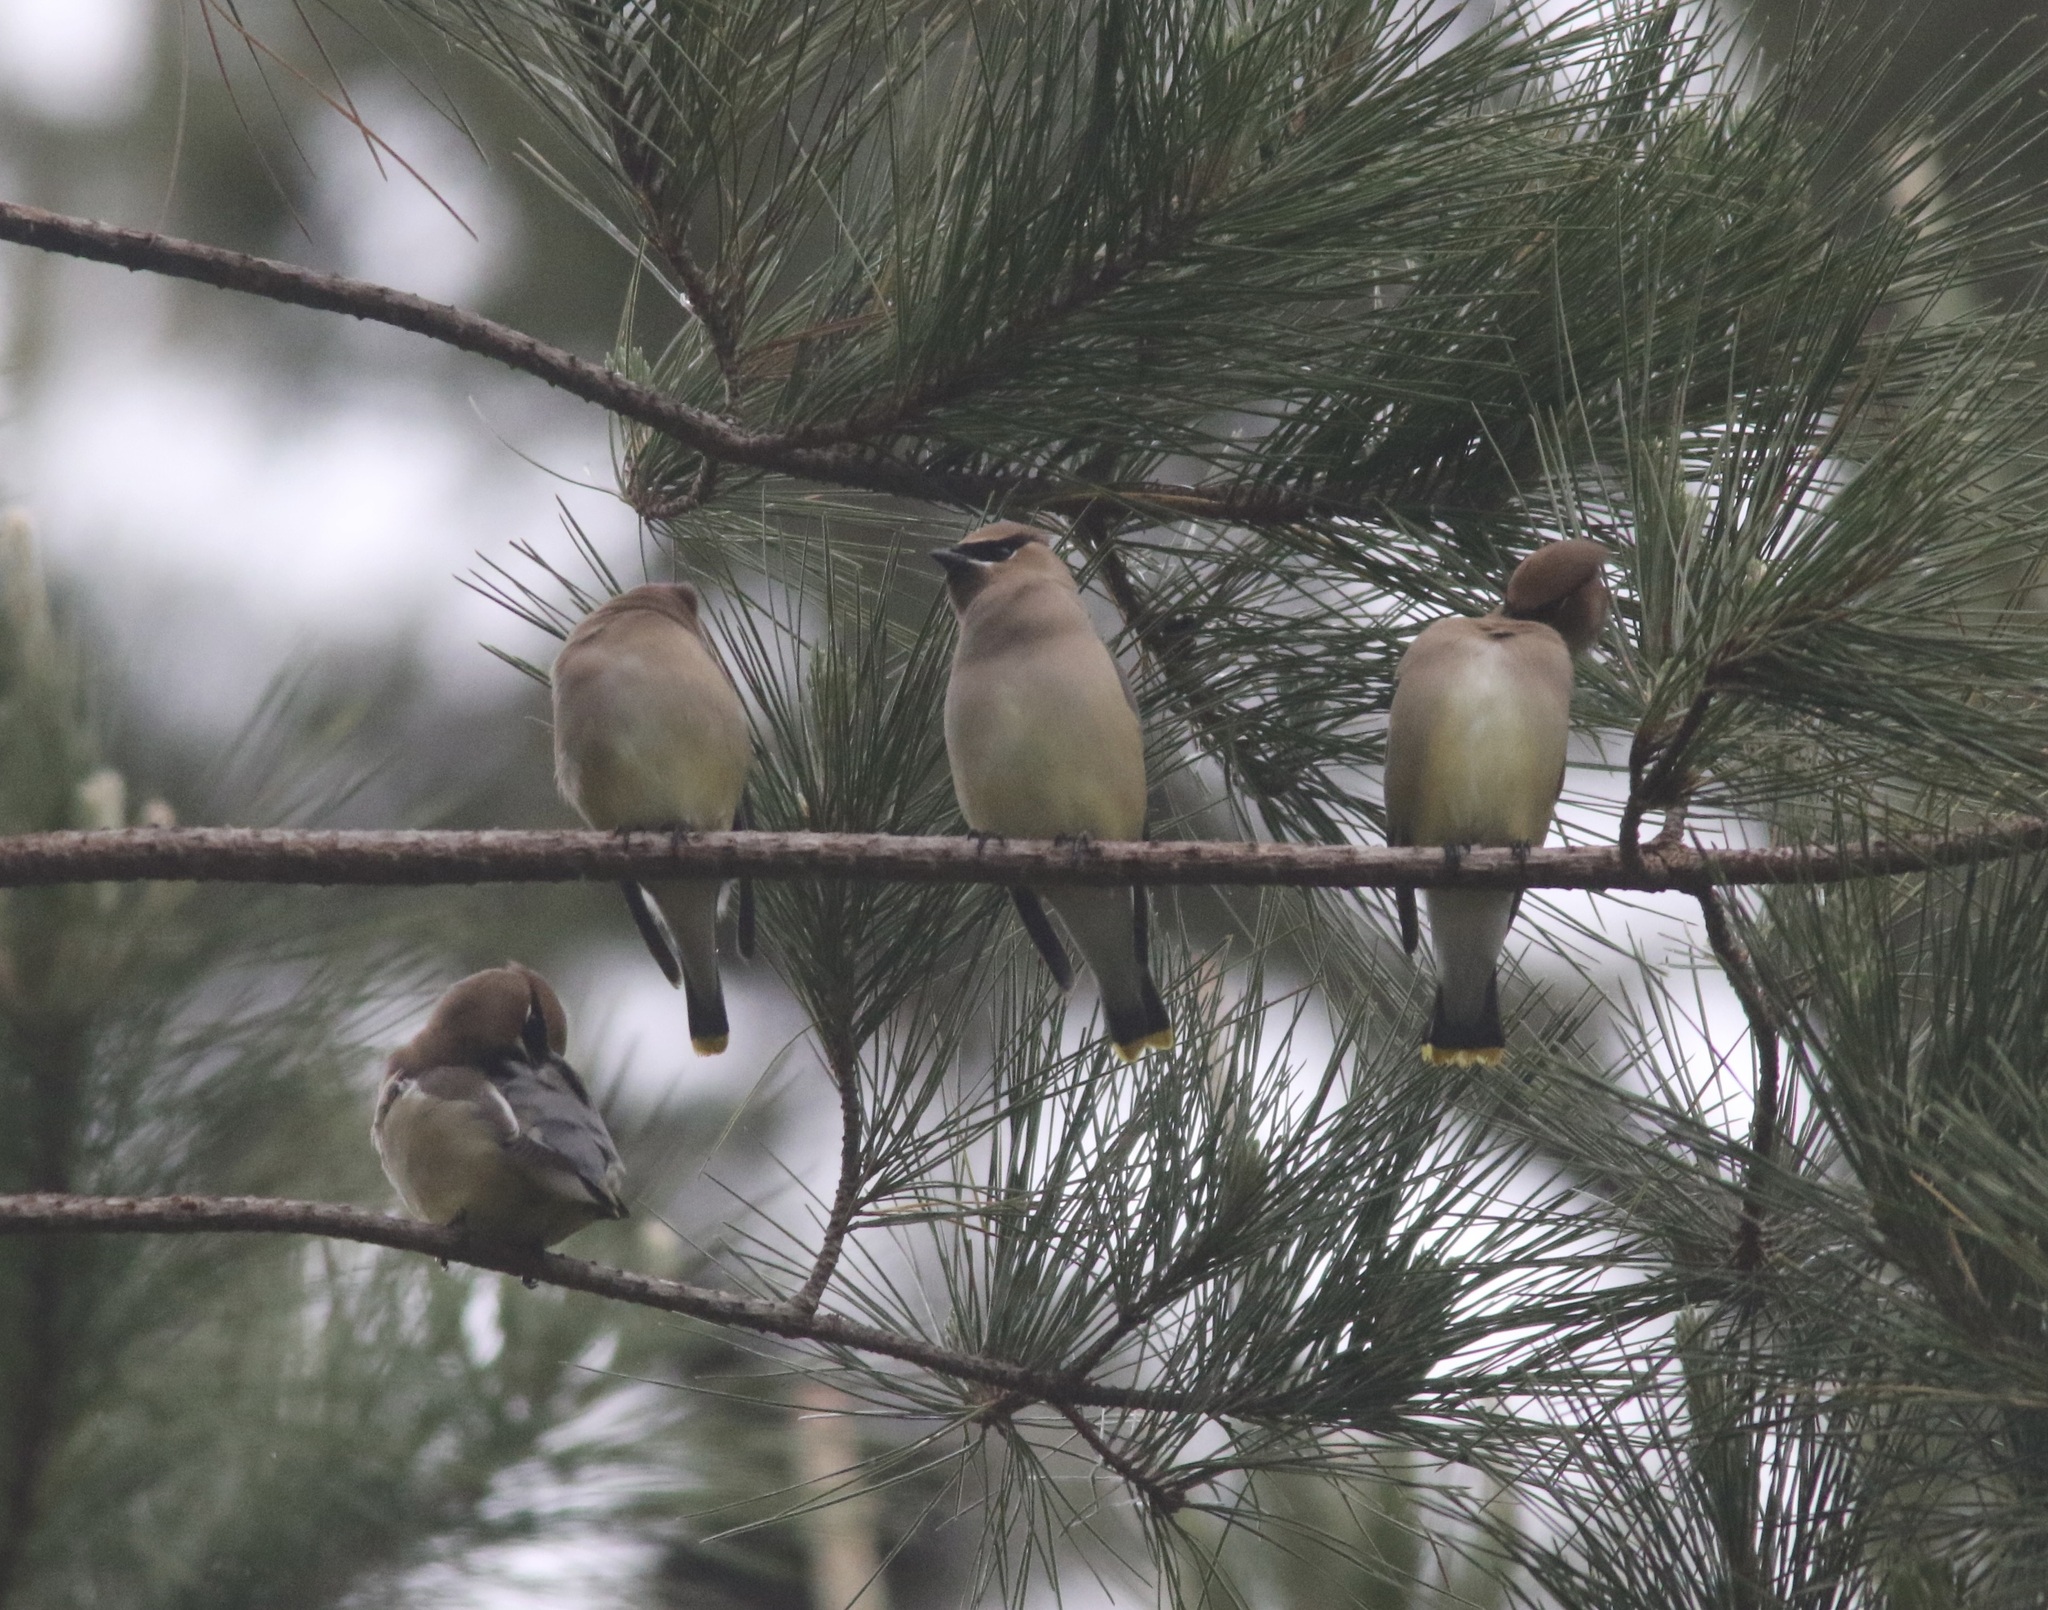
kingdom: Animalia
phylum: Chordata
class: Aves
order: Passeriformes
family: Bombycillidae
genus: Bombycilla
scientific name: Bombycilla cedrorum
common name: Cedar waxwing
